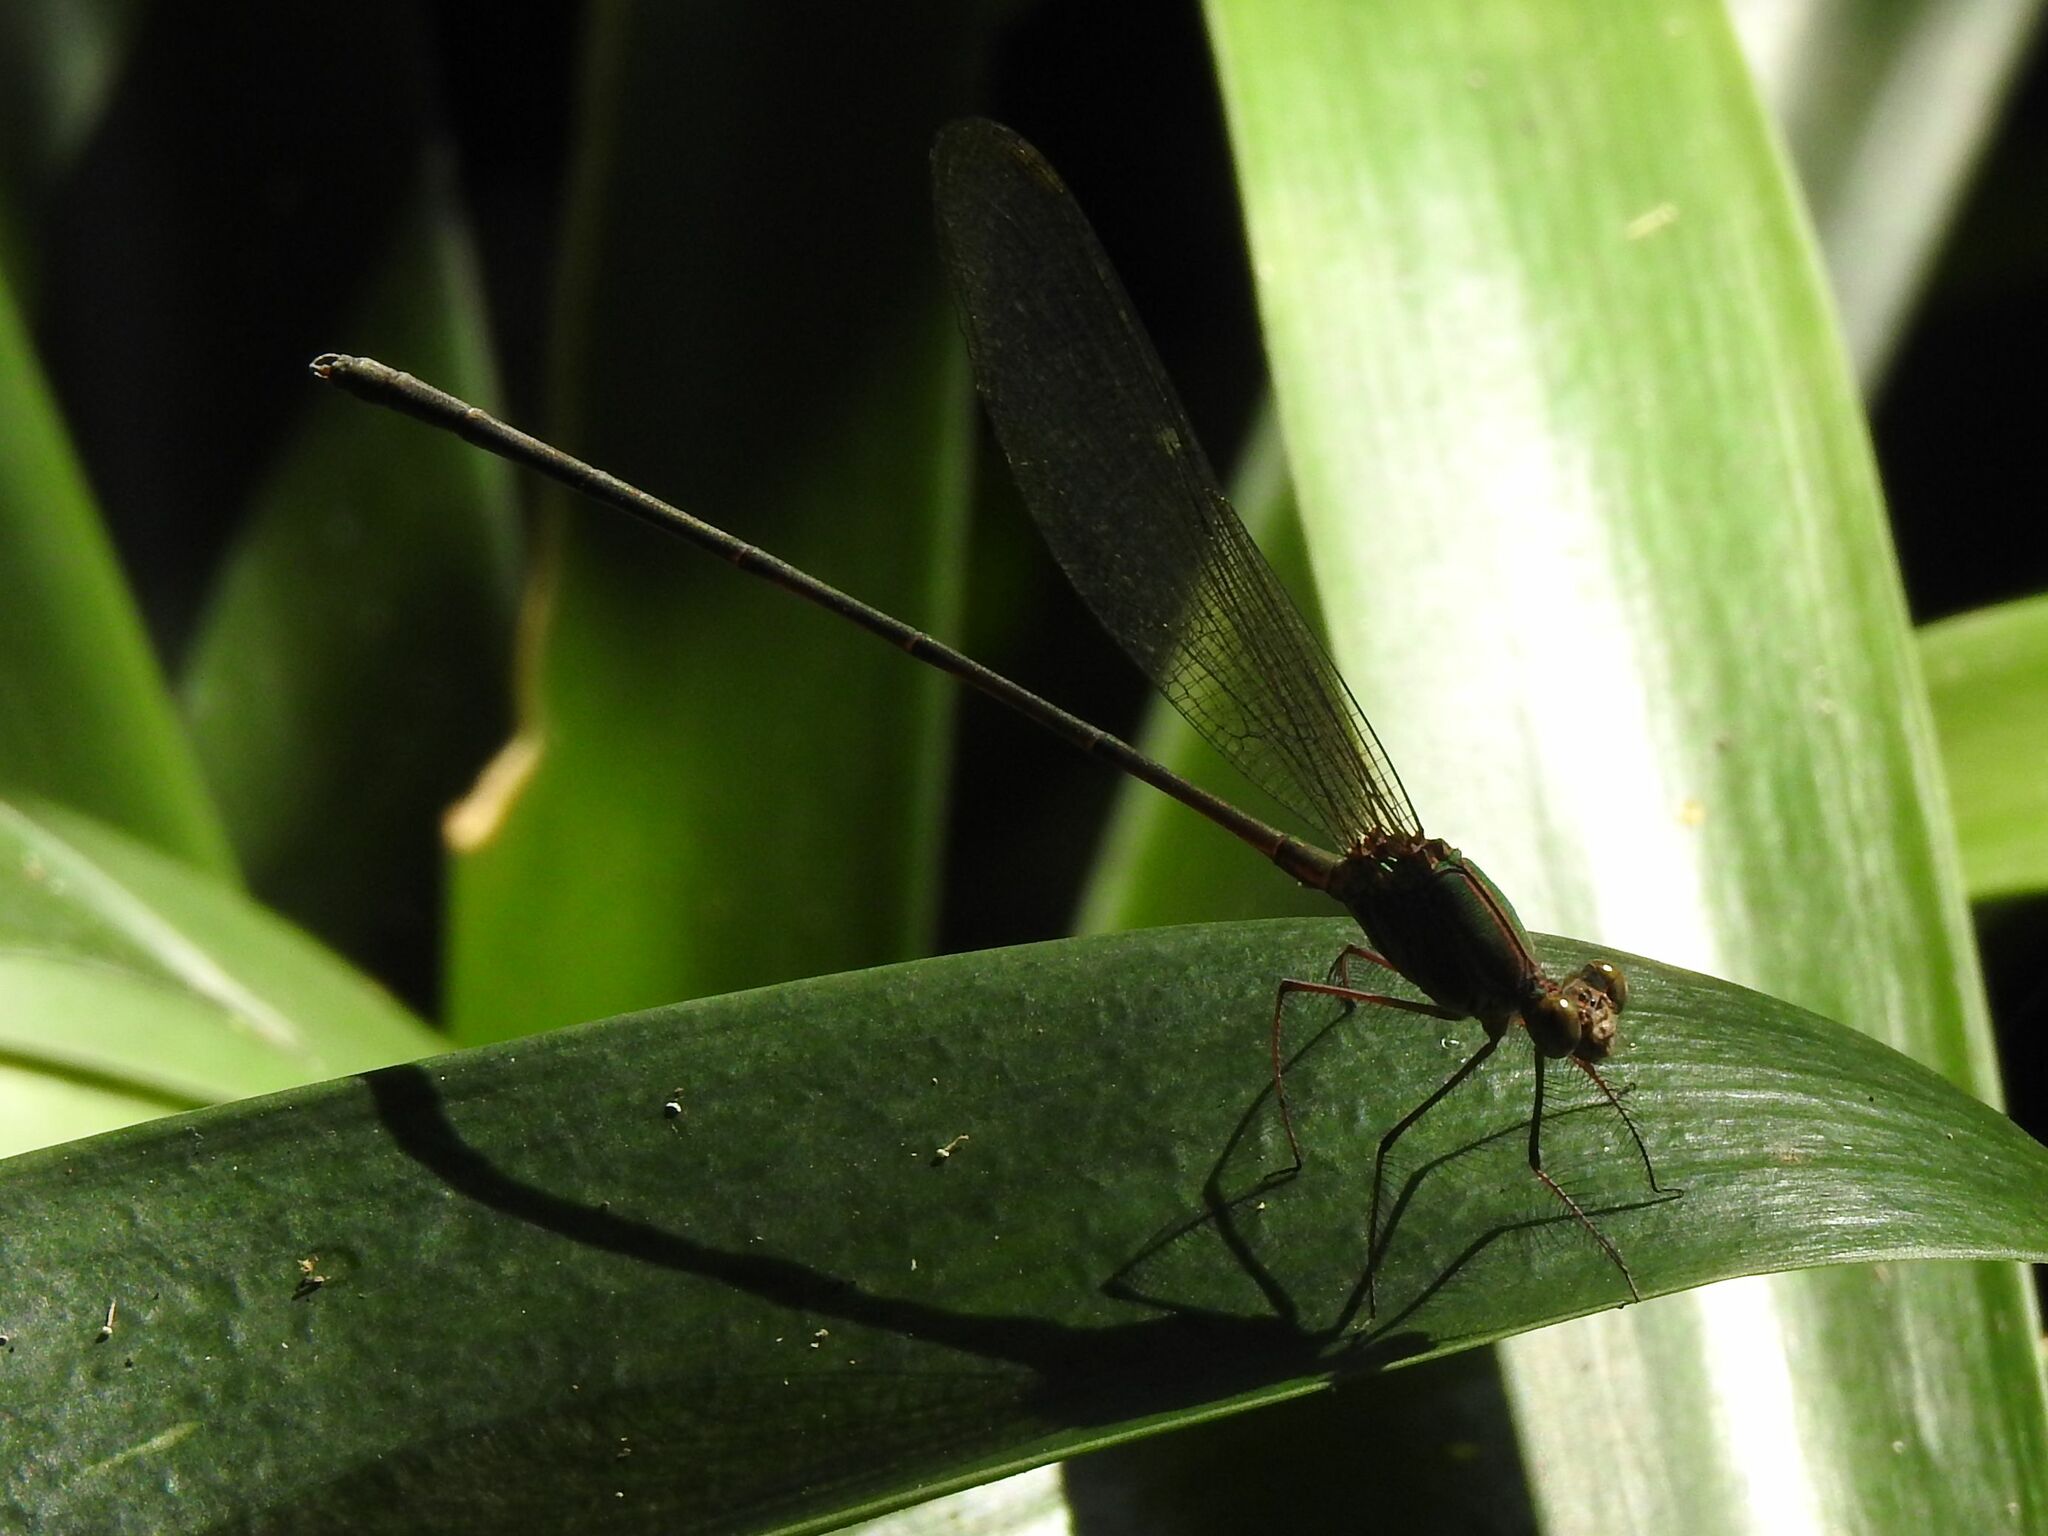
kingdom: Animalia
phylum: Arthropoda
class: Insecta
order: Odonata
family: Calopterygidae
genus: Phaon
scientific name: Phaon iridipennis
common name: Glistening demoiselle
